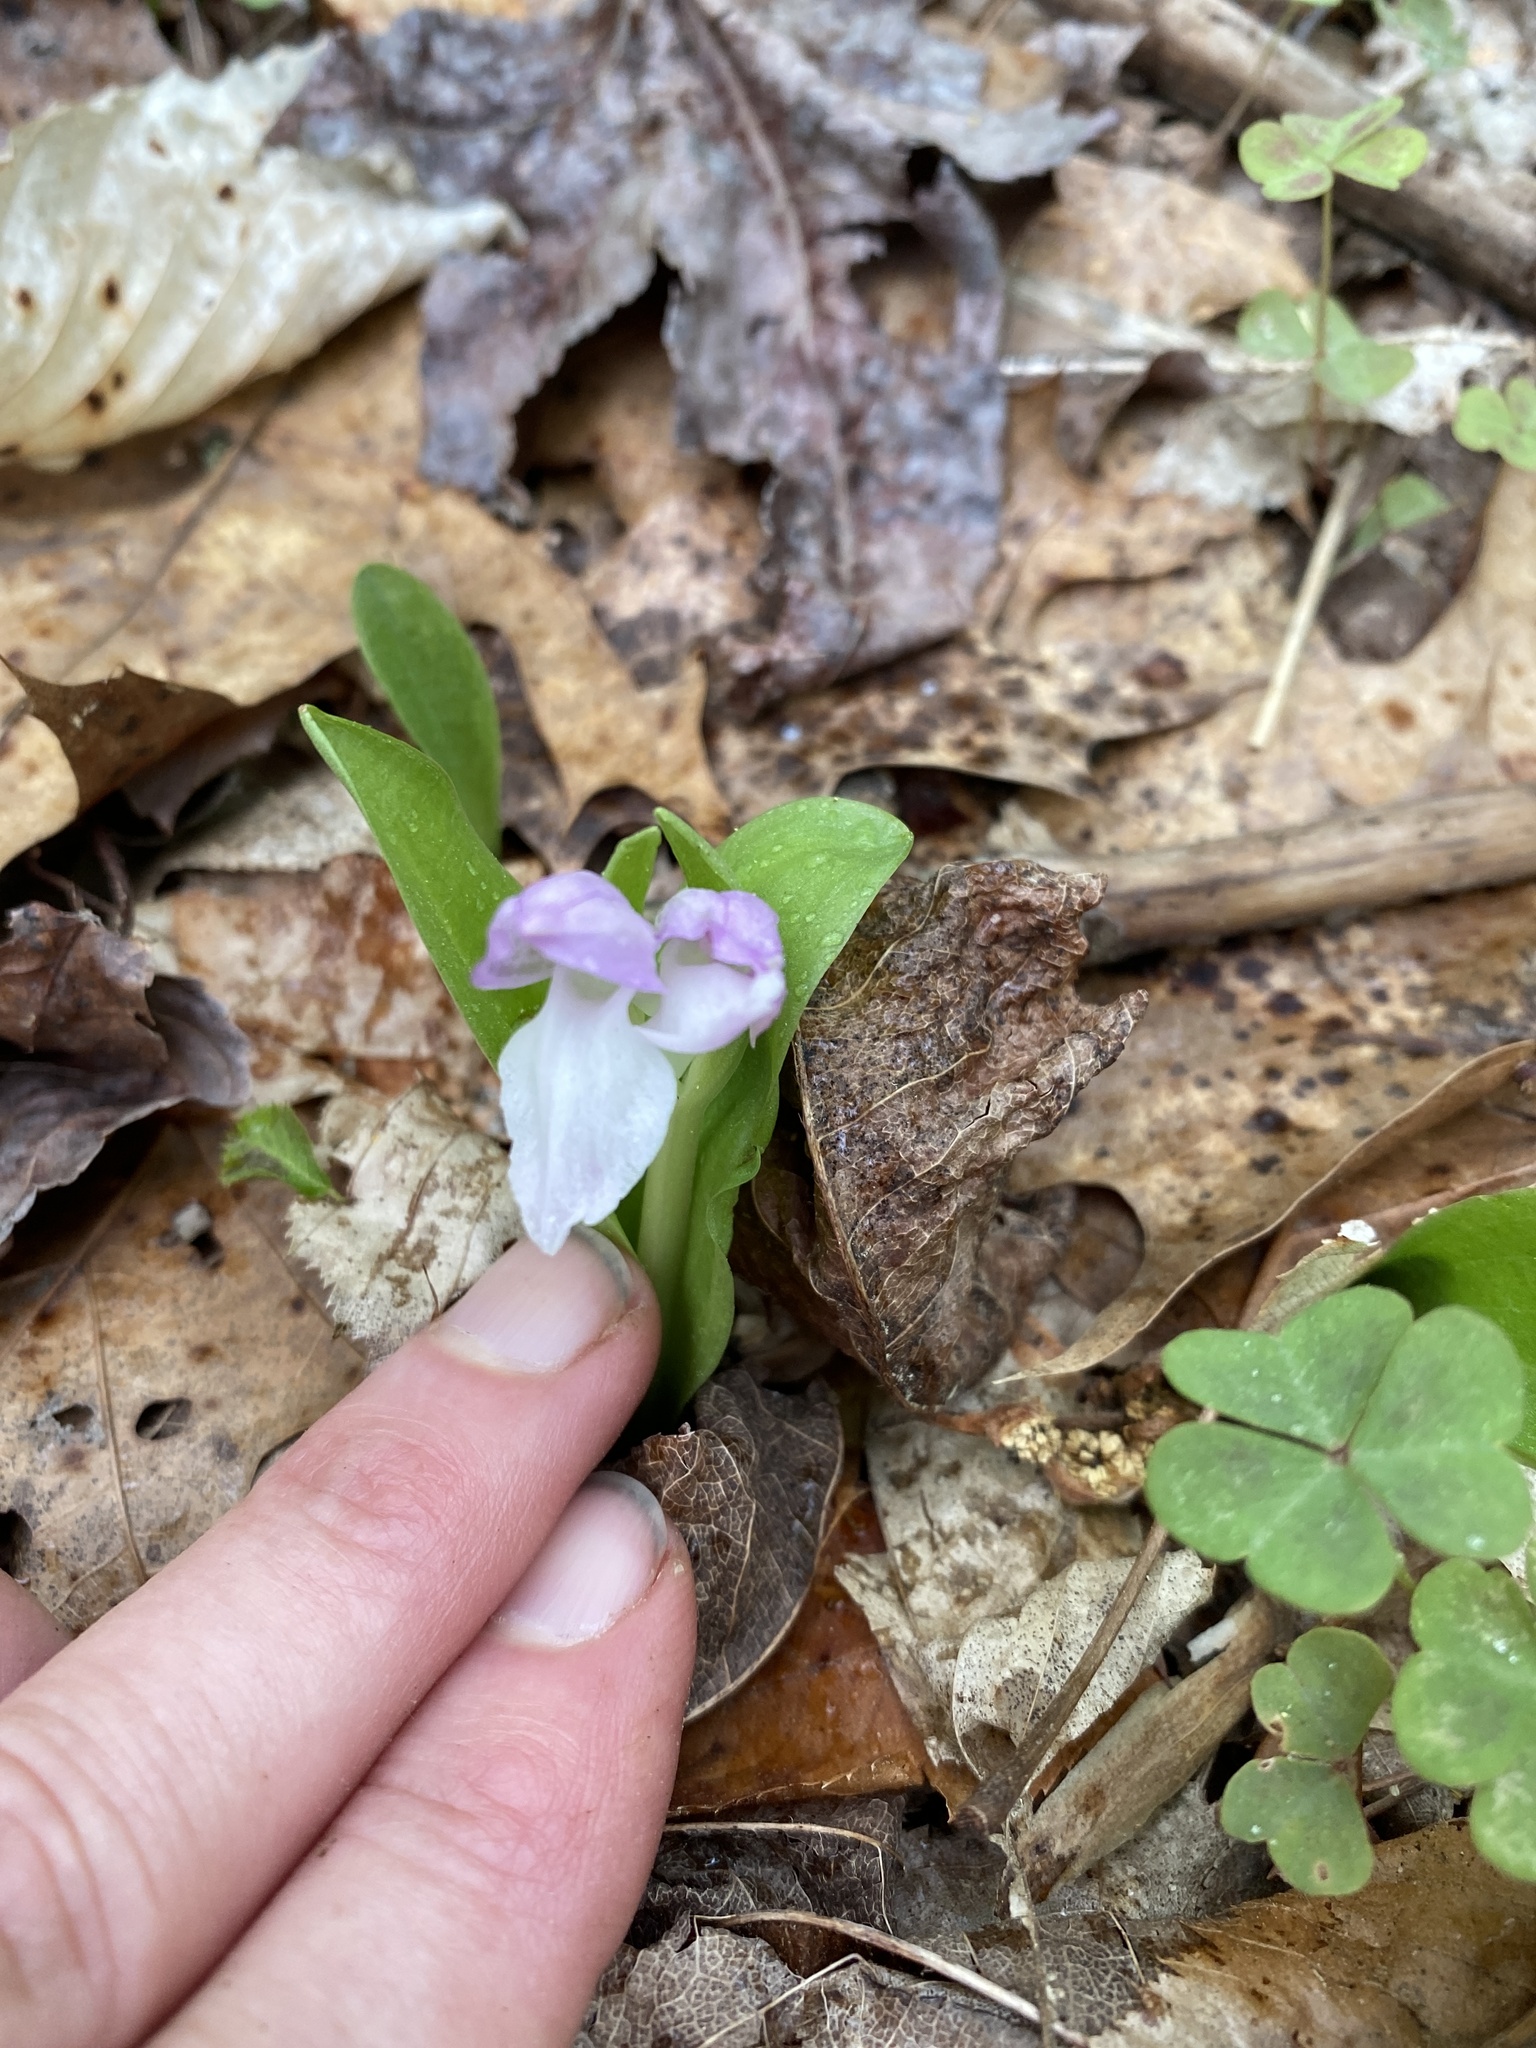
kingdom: Plantae
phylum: Tracheophyta
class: Liliopsida
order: Asparagales
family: Orchidaceae
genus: Galearis
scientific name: Galearis spectabilis
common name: Purple-hooded orchis
